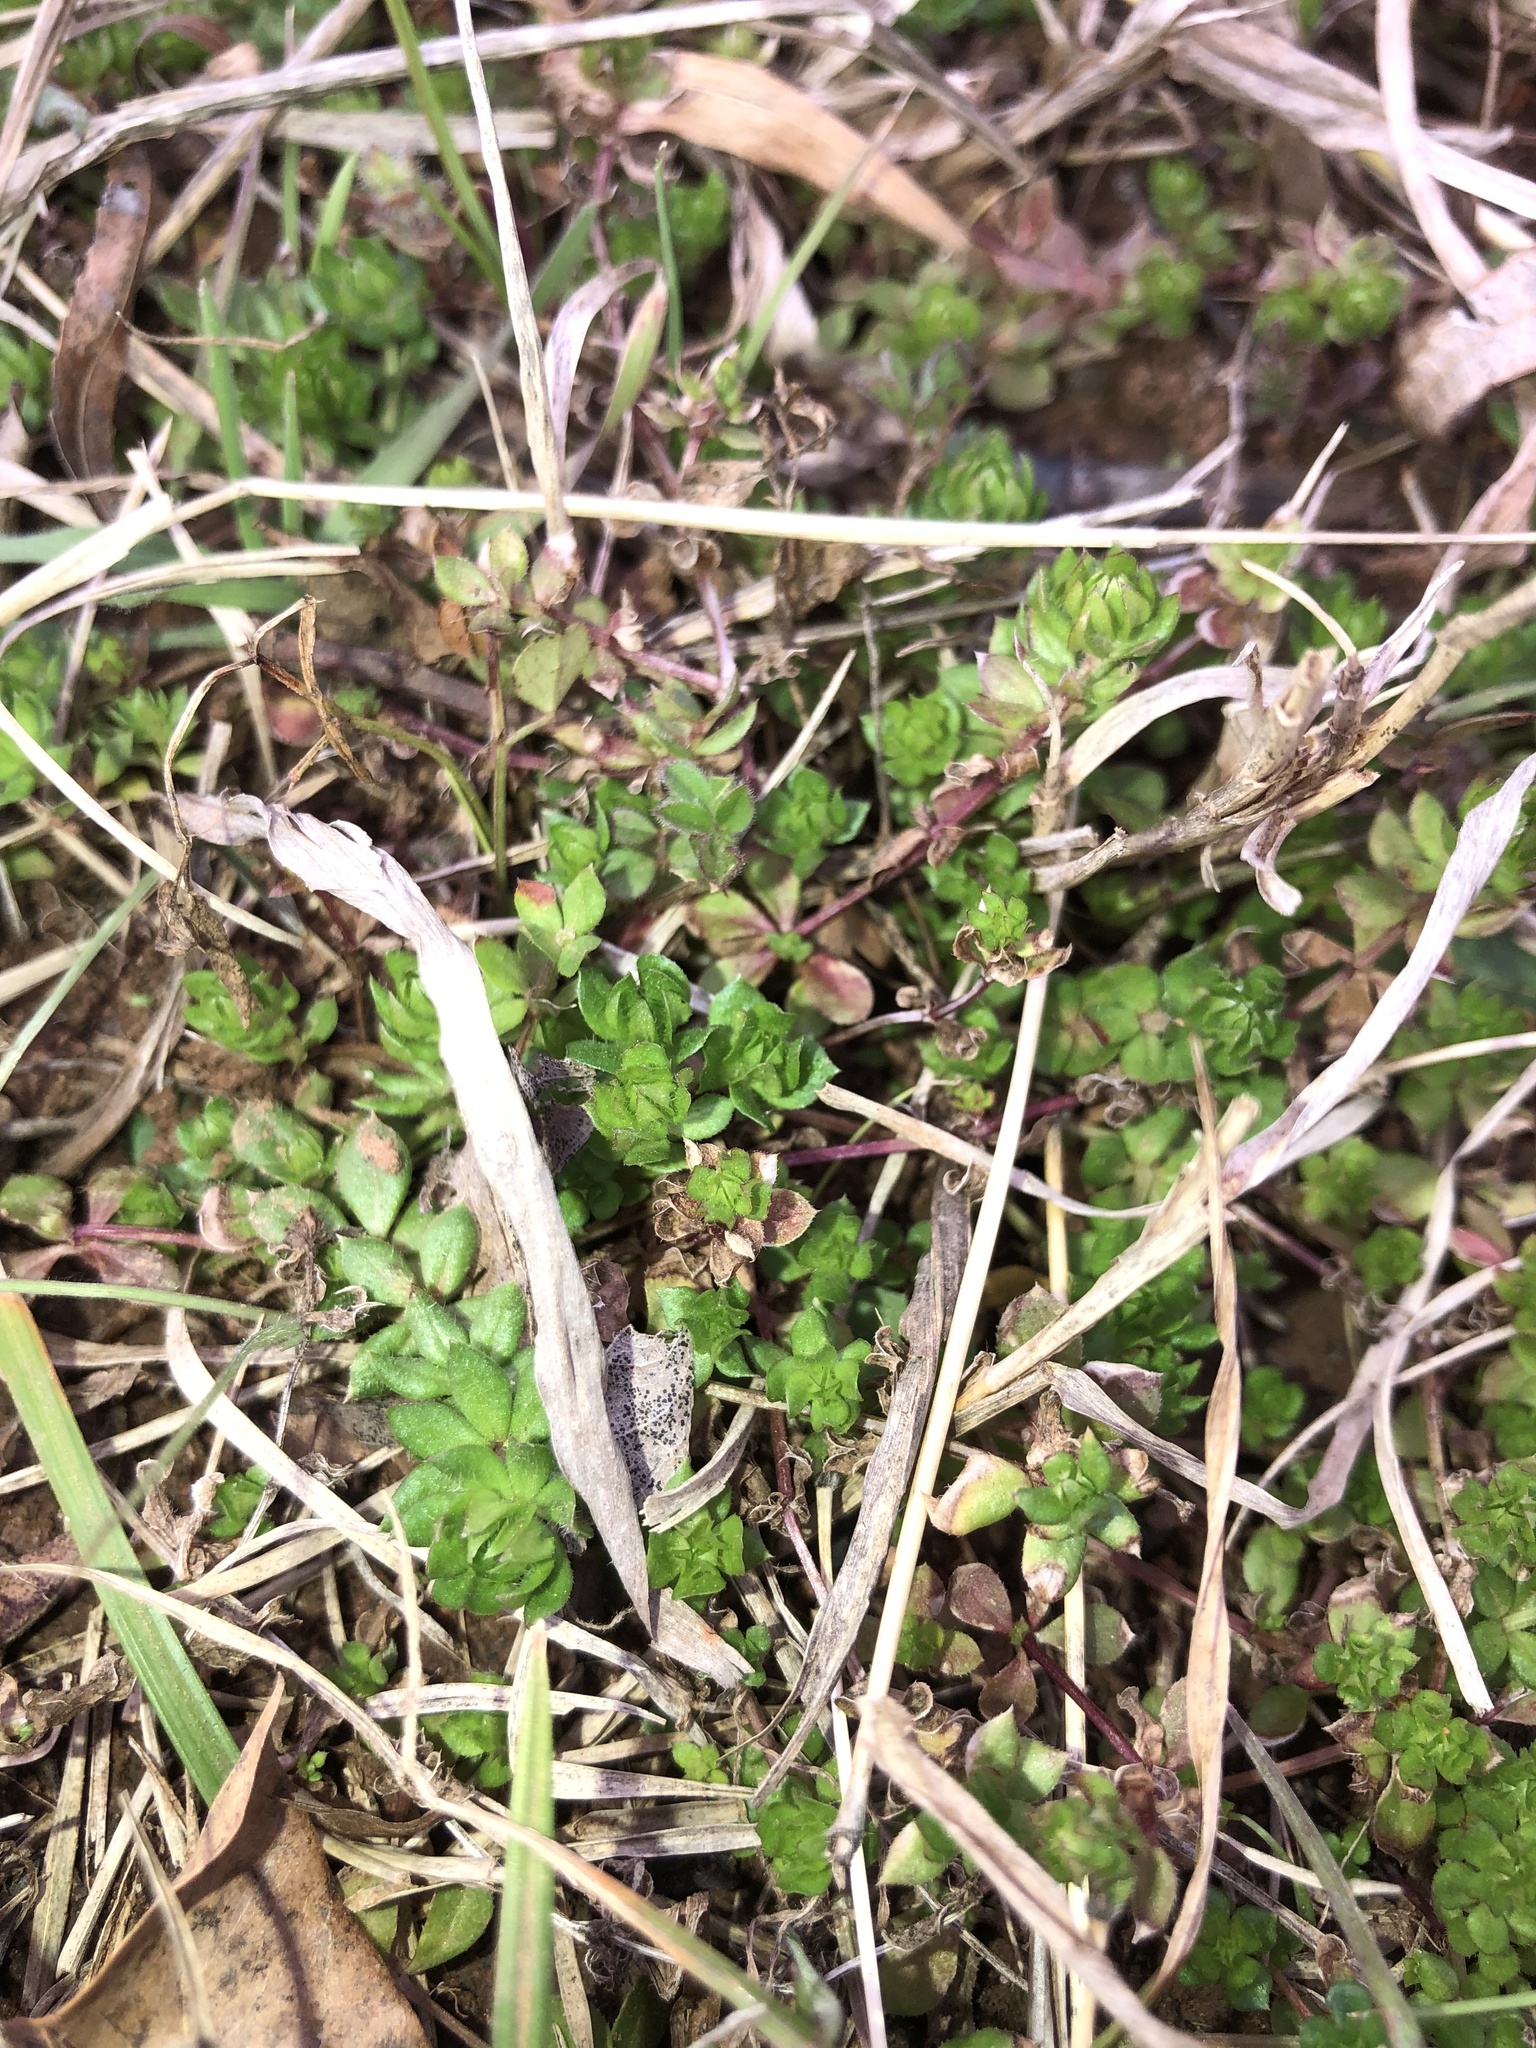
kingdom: Plantae
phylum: Tracheophyta
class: Magnoliopsida
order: Gentianales
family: Rubiaceae
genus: Sherardia
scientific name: Sherardia arvensis
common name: Field madder
